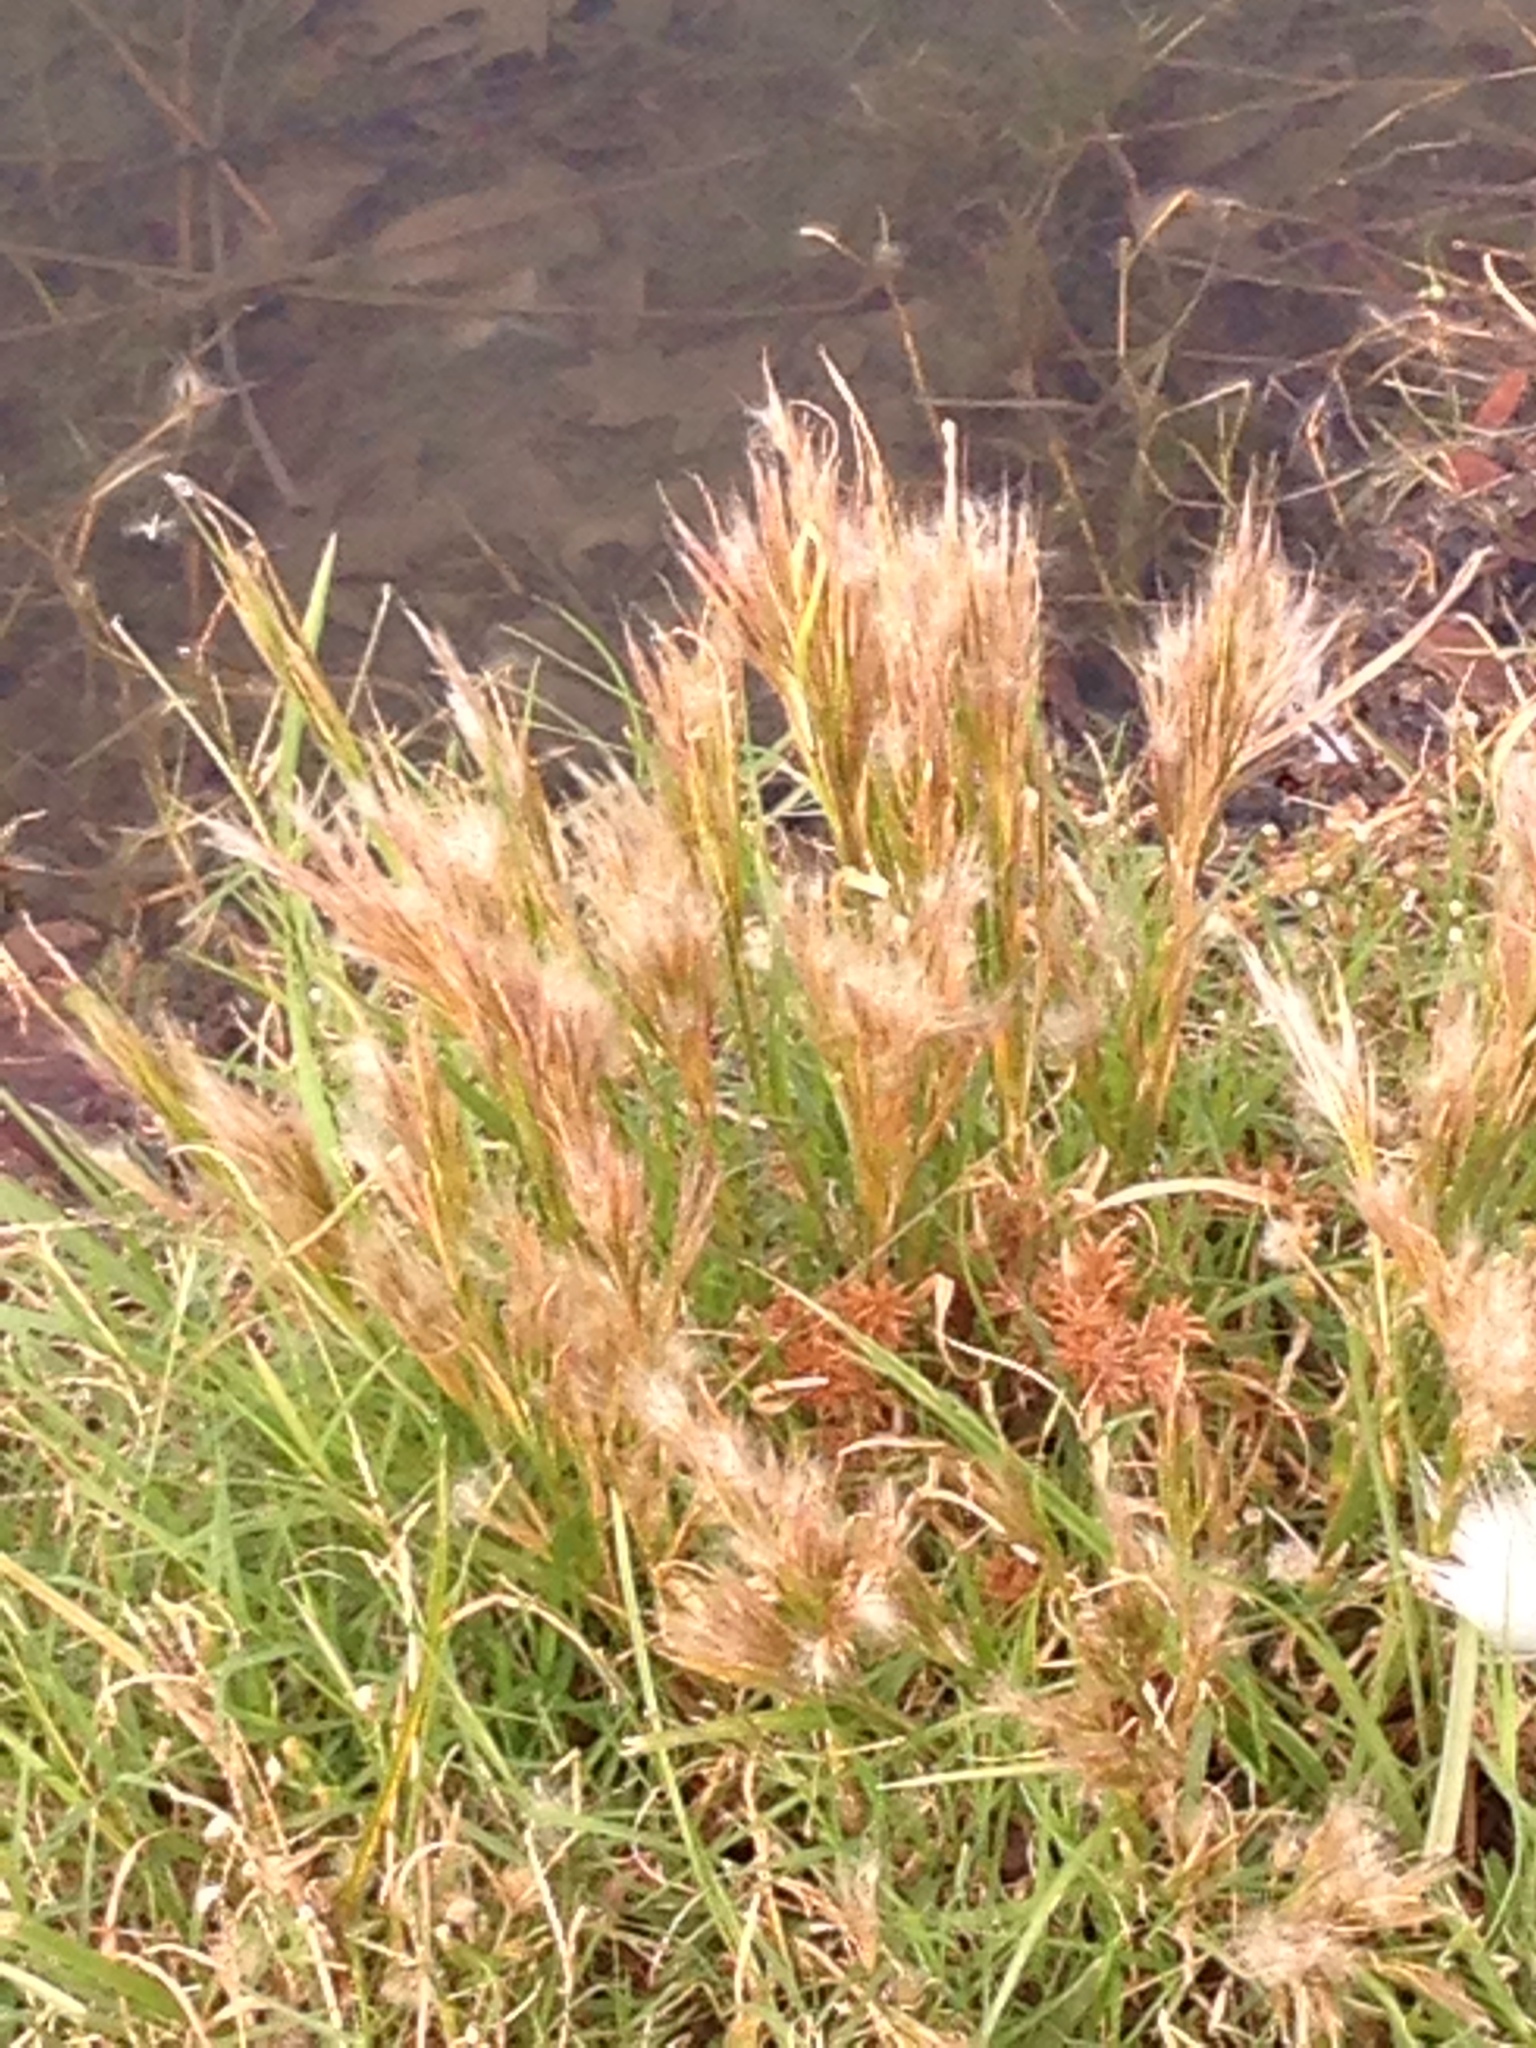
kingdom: Plantae
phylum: Tracheophyta
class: Liliopsida
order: Poales
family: Poaceae
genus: Andropogon
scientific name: Andropogon tenuispatheus
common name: Bushy bluestem
